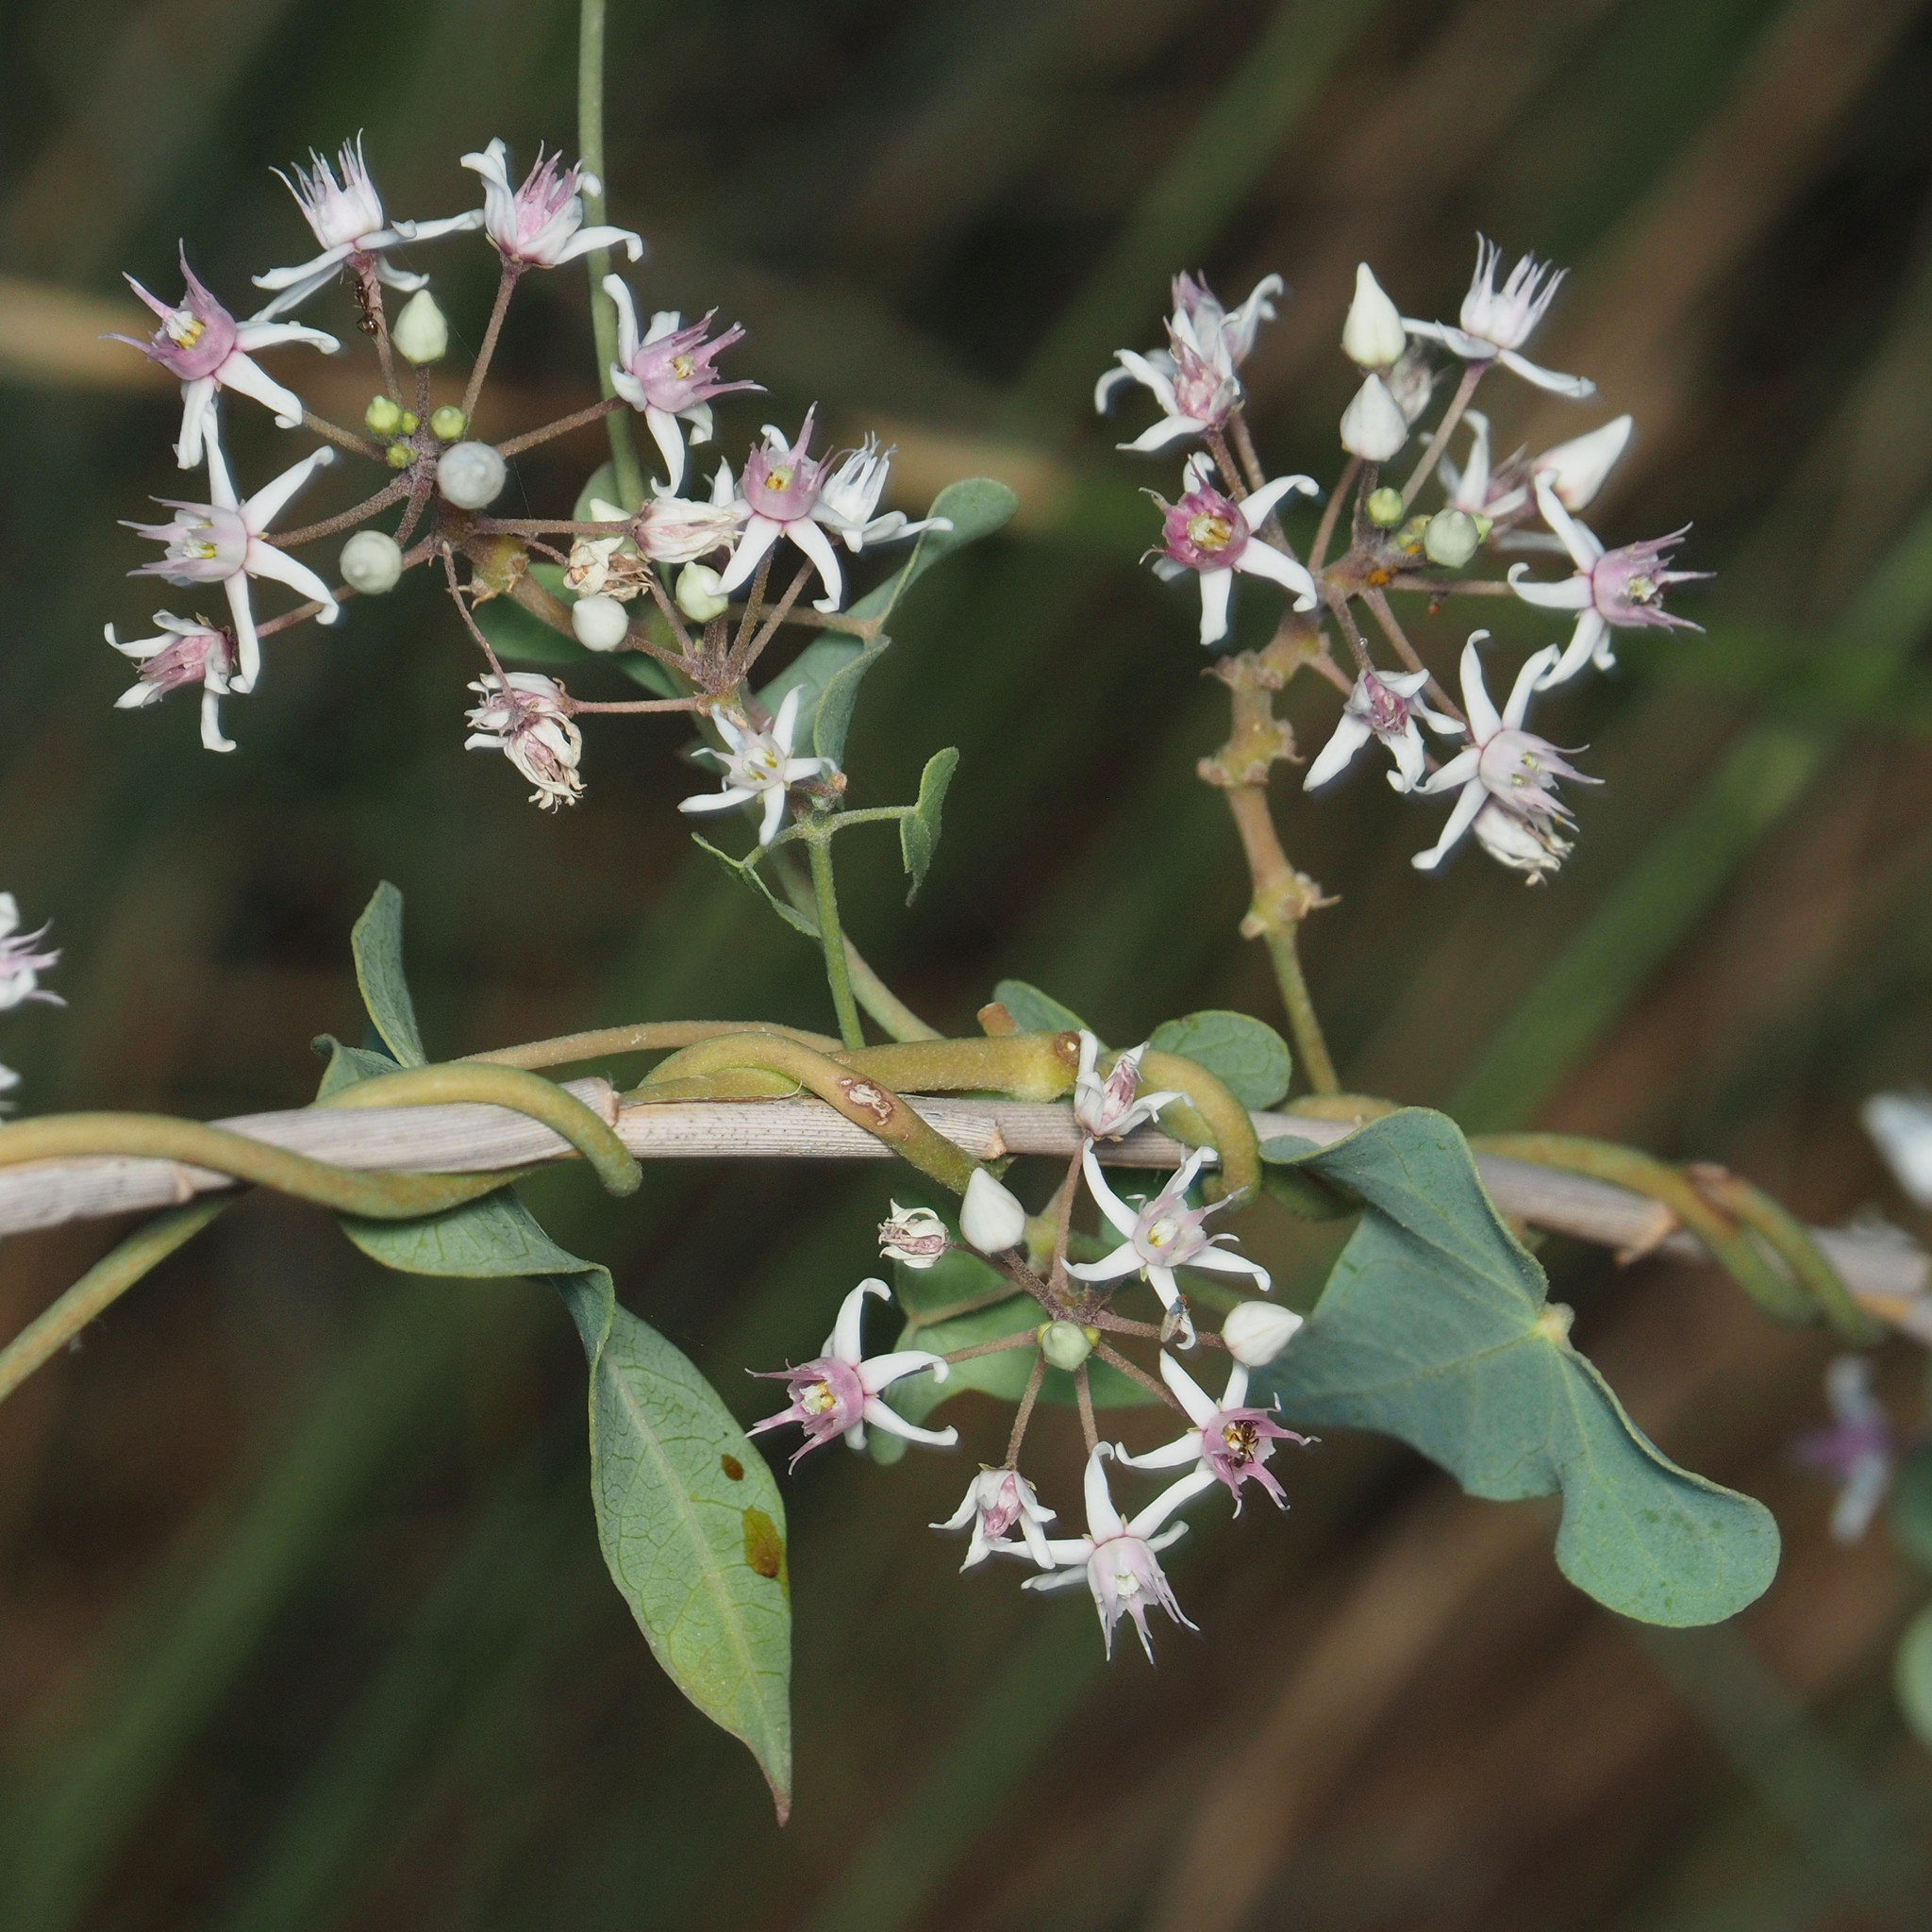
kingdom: Plantae
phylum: Tracheophyta
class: Magnoliopsida
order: Gentianales
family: Apocynaceae
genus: Cynanchum
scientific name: Cynanchum acutum
